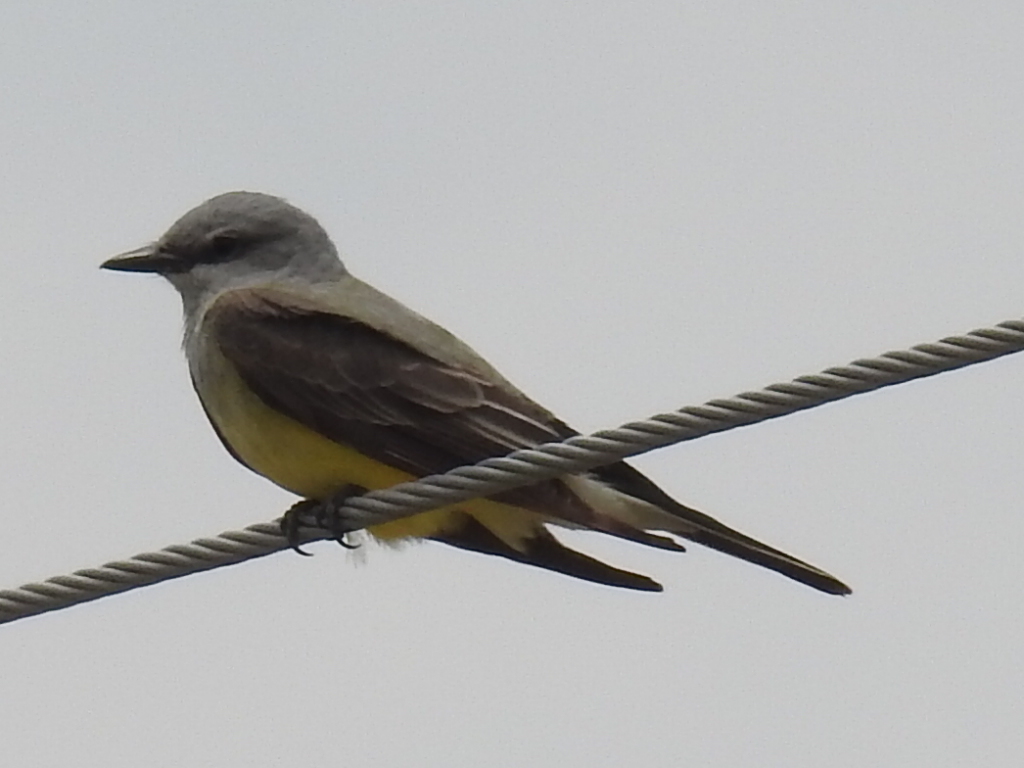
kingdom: Animalia
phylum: Chordata
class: Aves
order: Passeriformes
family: Tyrannidae
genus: Tyrannus
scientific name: Tyrannus verticalis
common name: Western kingbird
